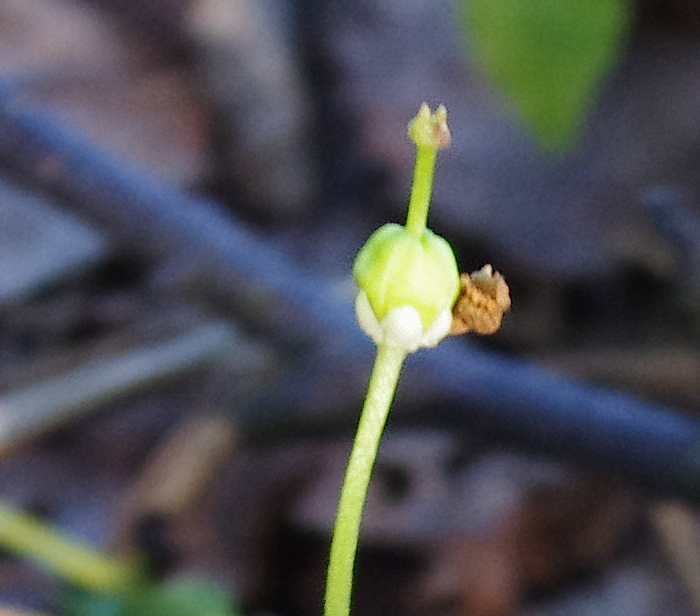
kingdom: Plantae
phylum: Tracheophyta
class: Magnoliopsida
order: Ericales
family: Ericaceae
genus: Moneses
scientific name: Moneses uniflora
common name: One-flowered wintergreen
